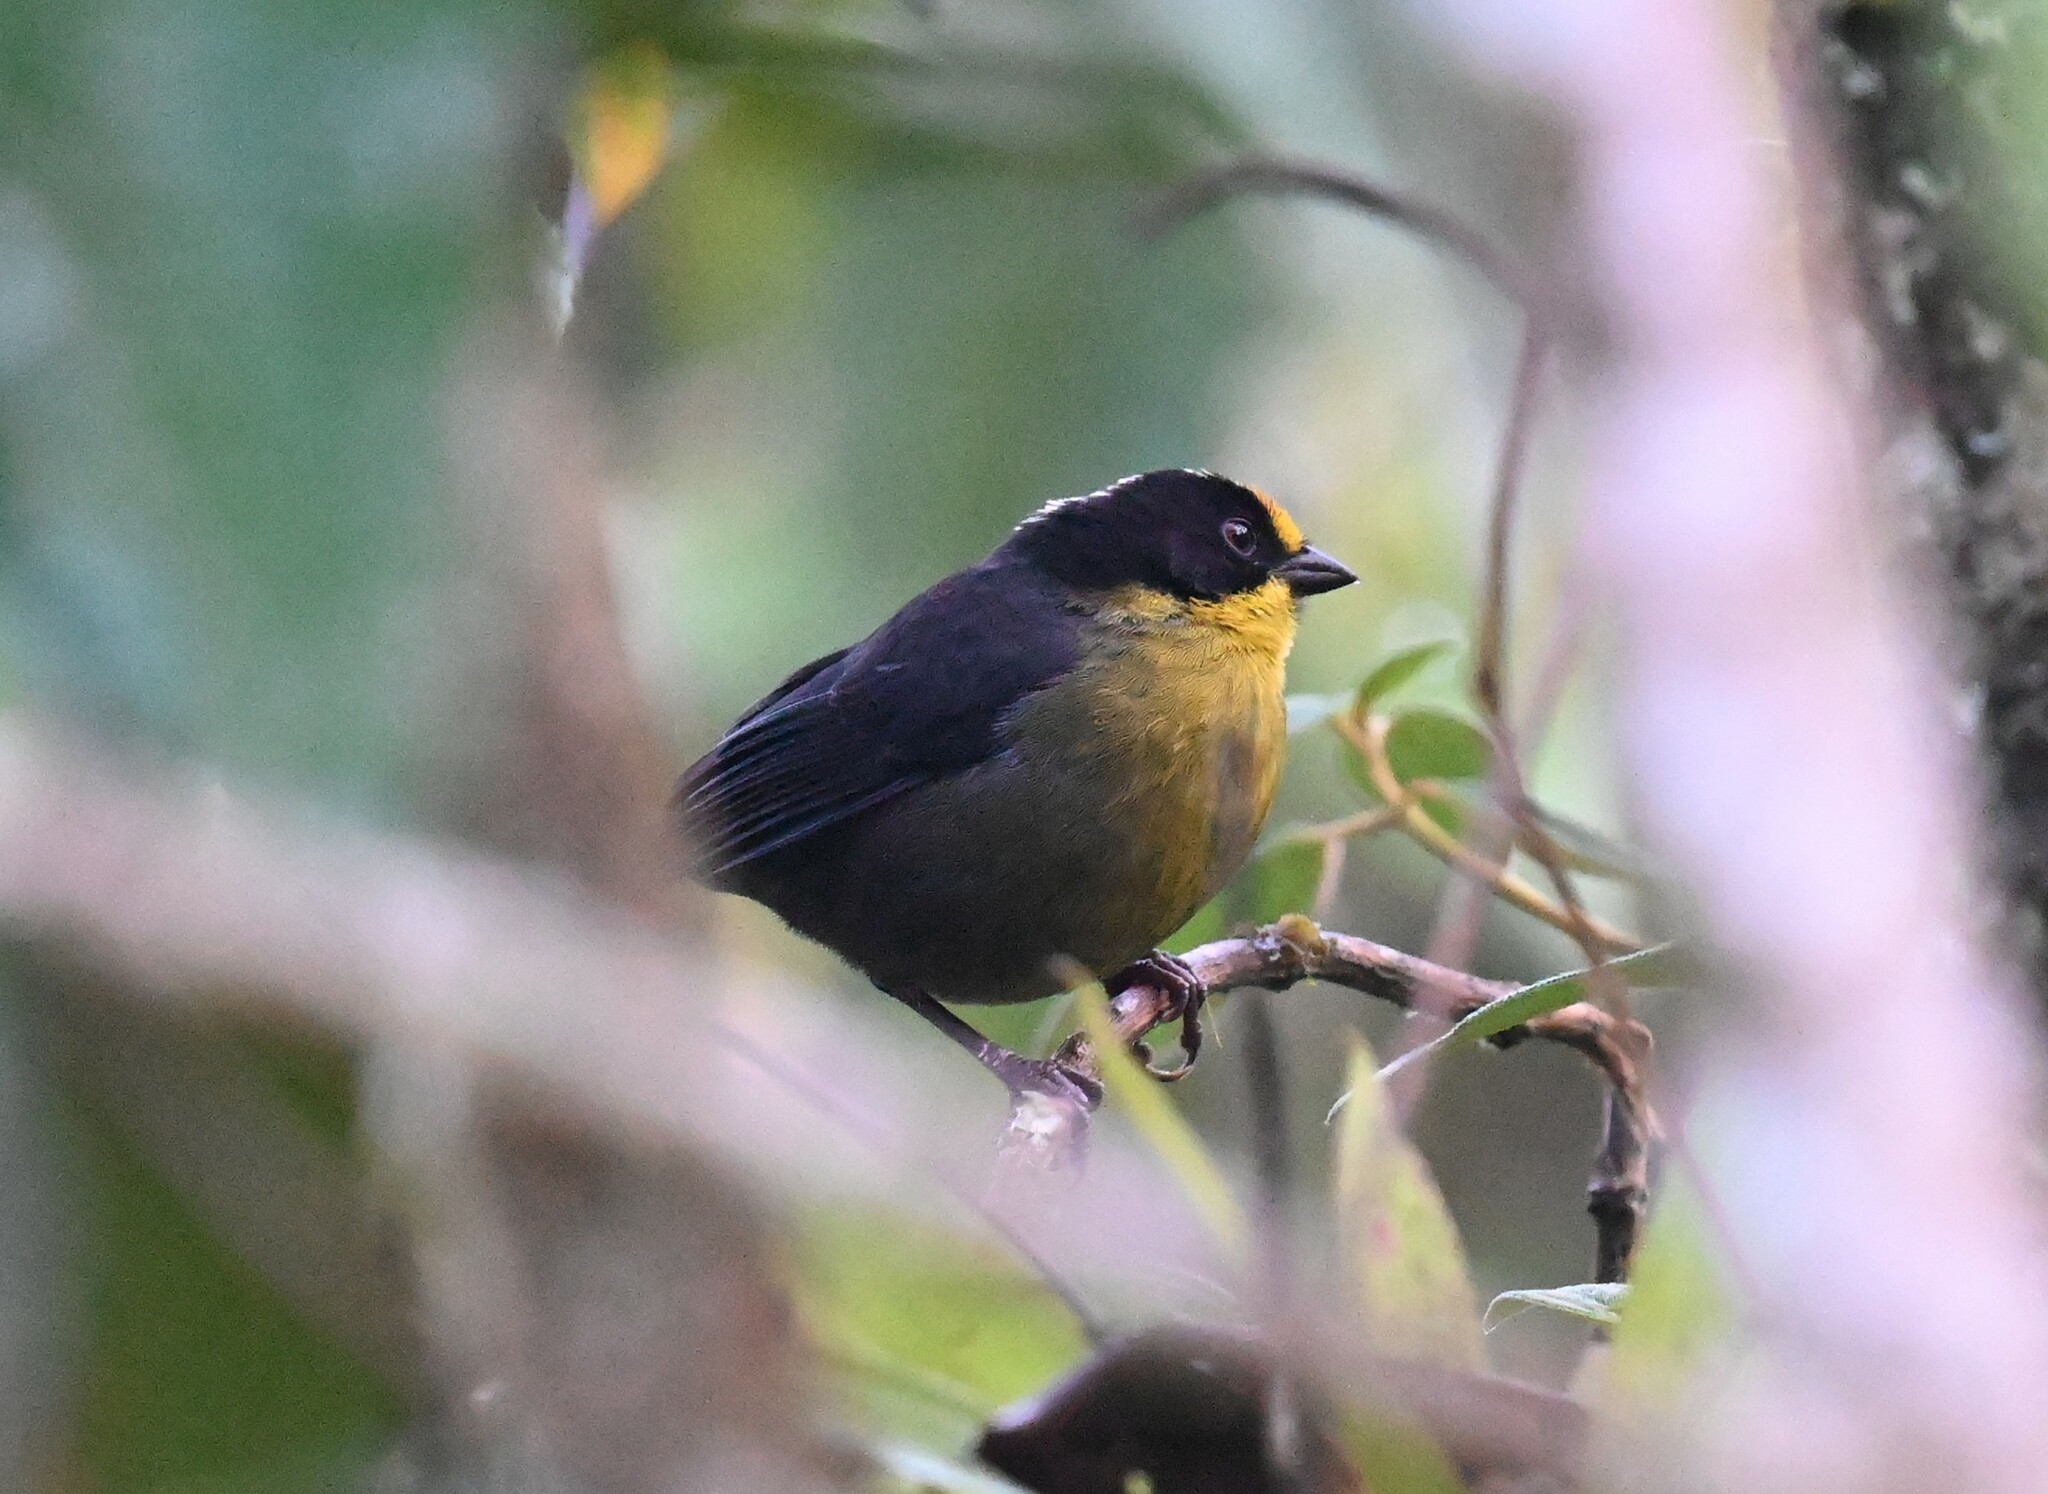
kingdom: Animalia
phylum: Chordata
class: Aves
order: Passeriformes
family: Passerellidae
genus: Atlapetes
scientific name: Atlapetes pallidinucha
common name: Pale-naped brushfinch
